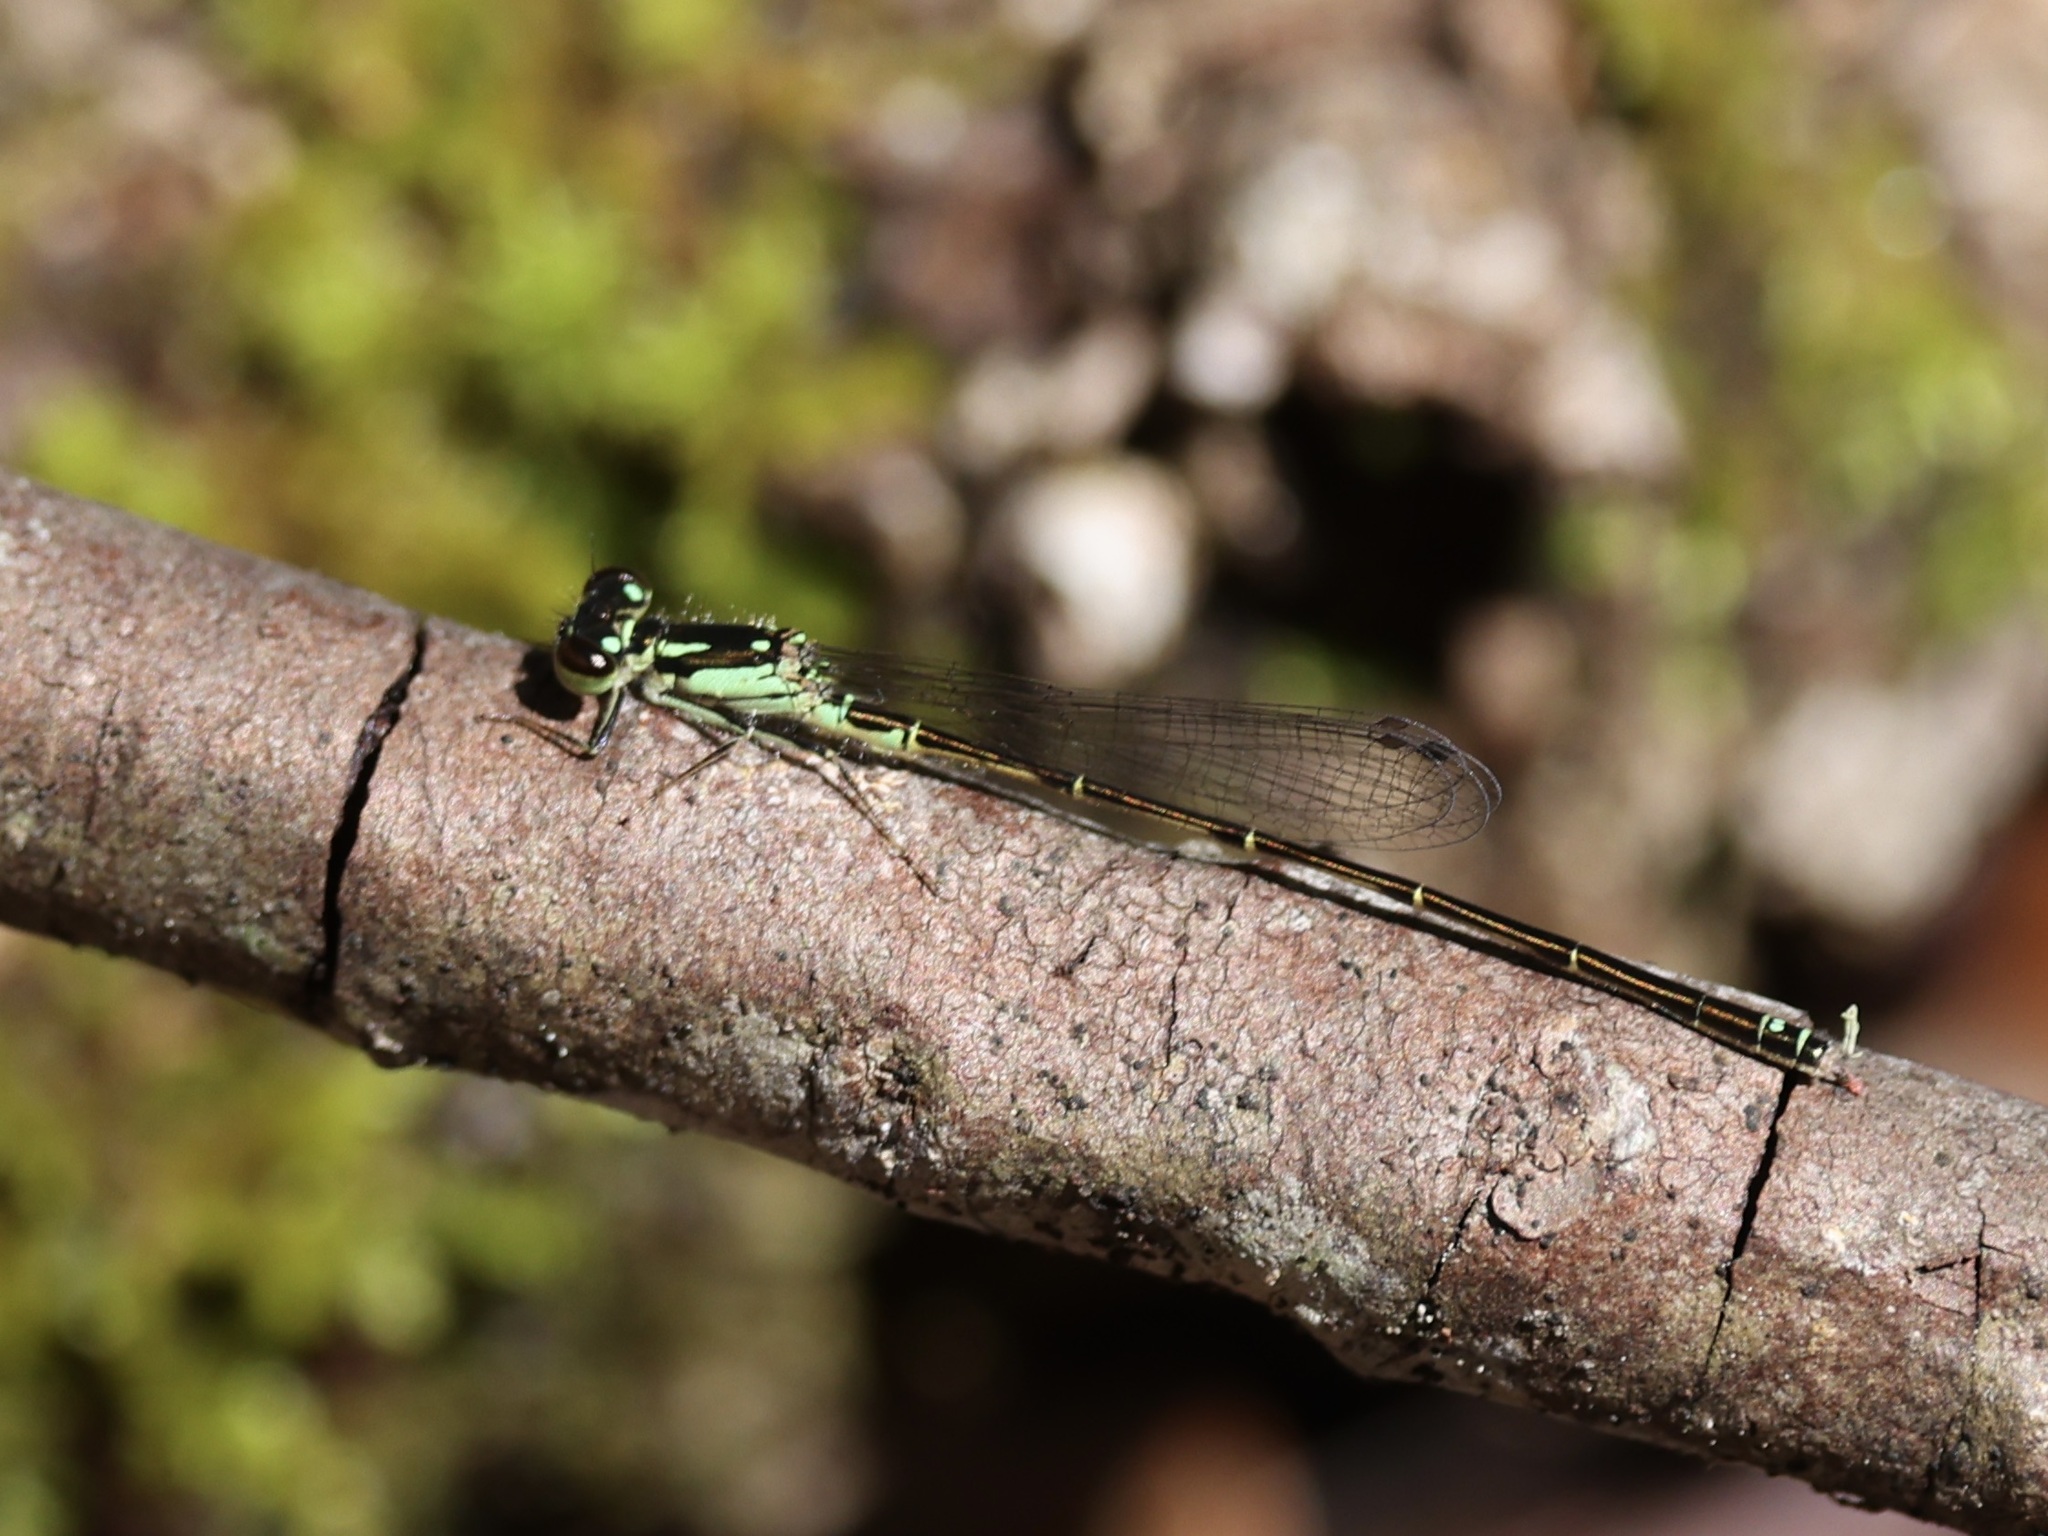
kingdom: Animalia
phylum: Arthropoda
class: Insecta
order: Odonata
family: Coenagrionidae
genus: Ischnura
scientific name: Ischnura posita
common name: Fragile forktail
